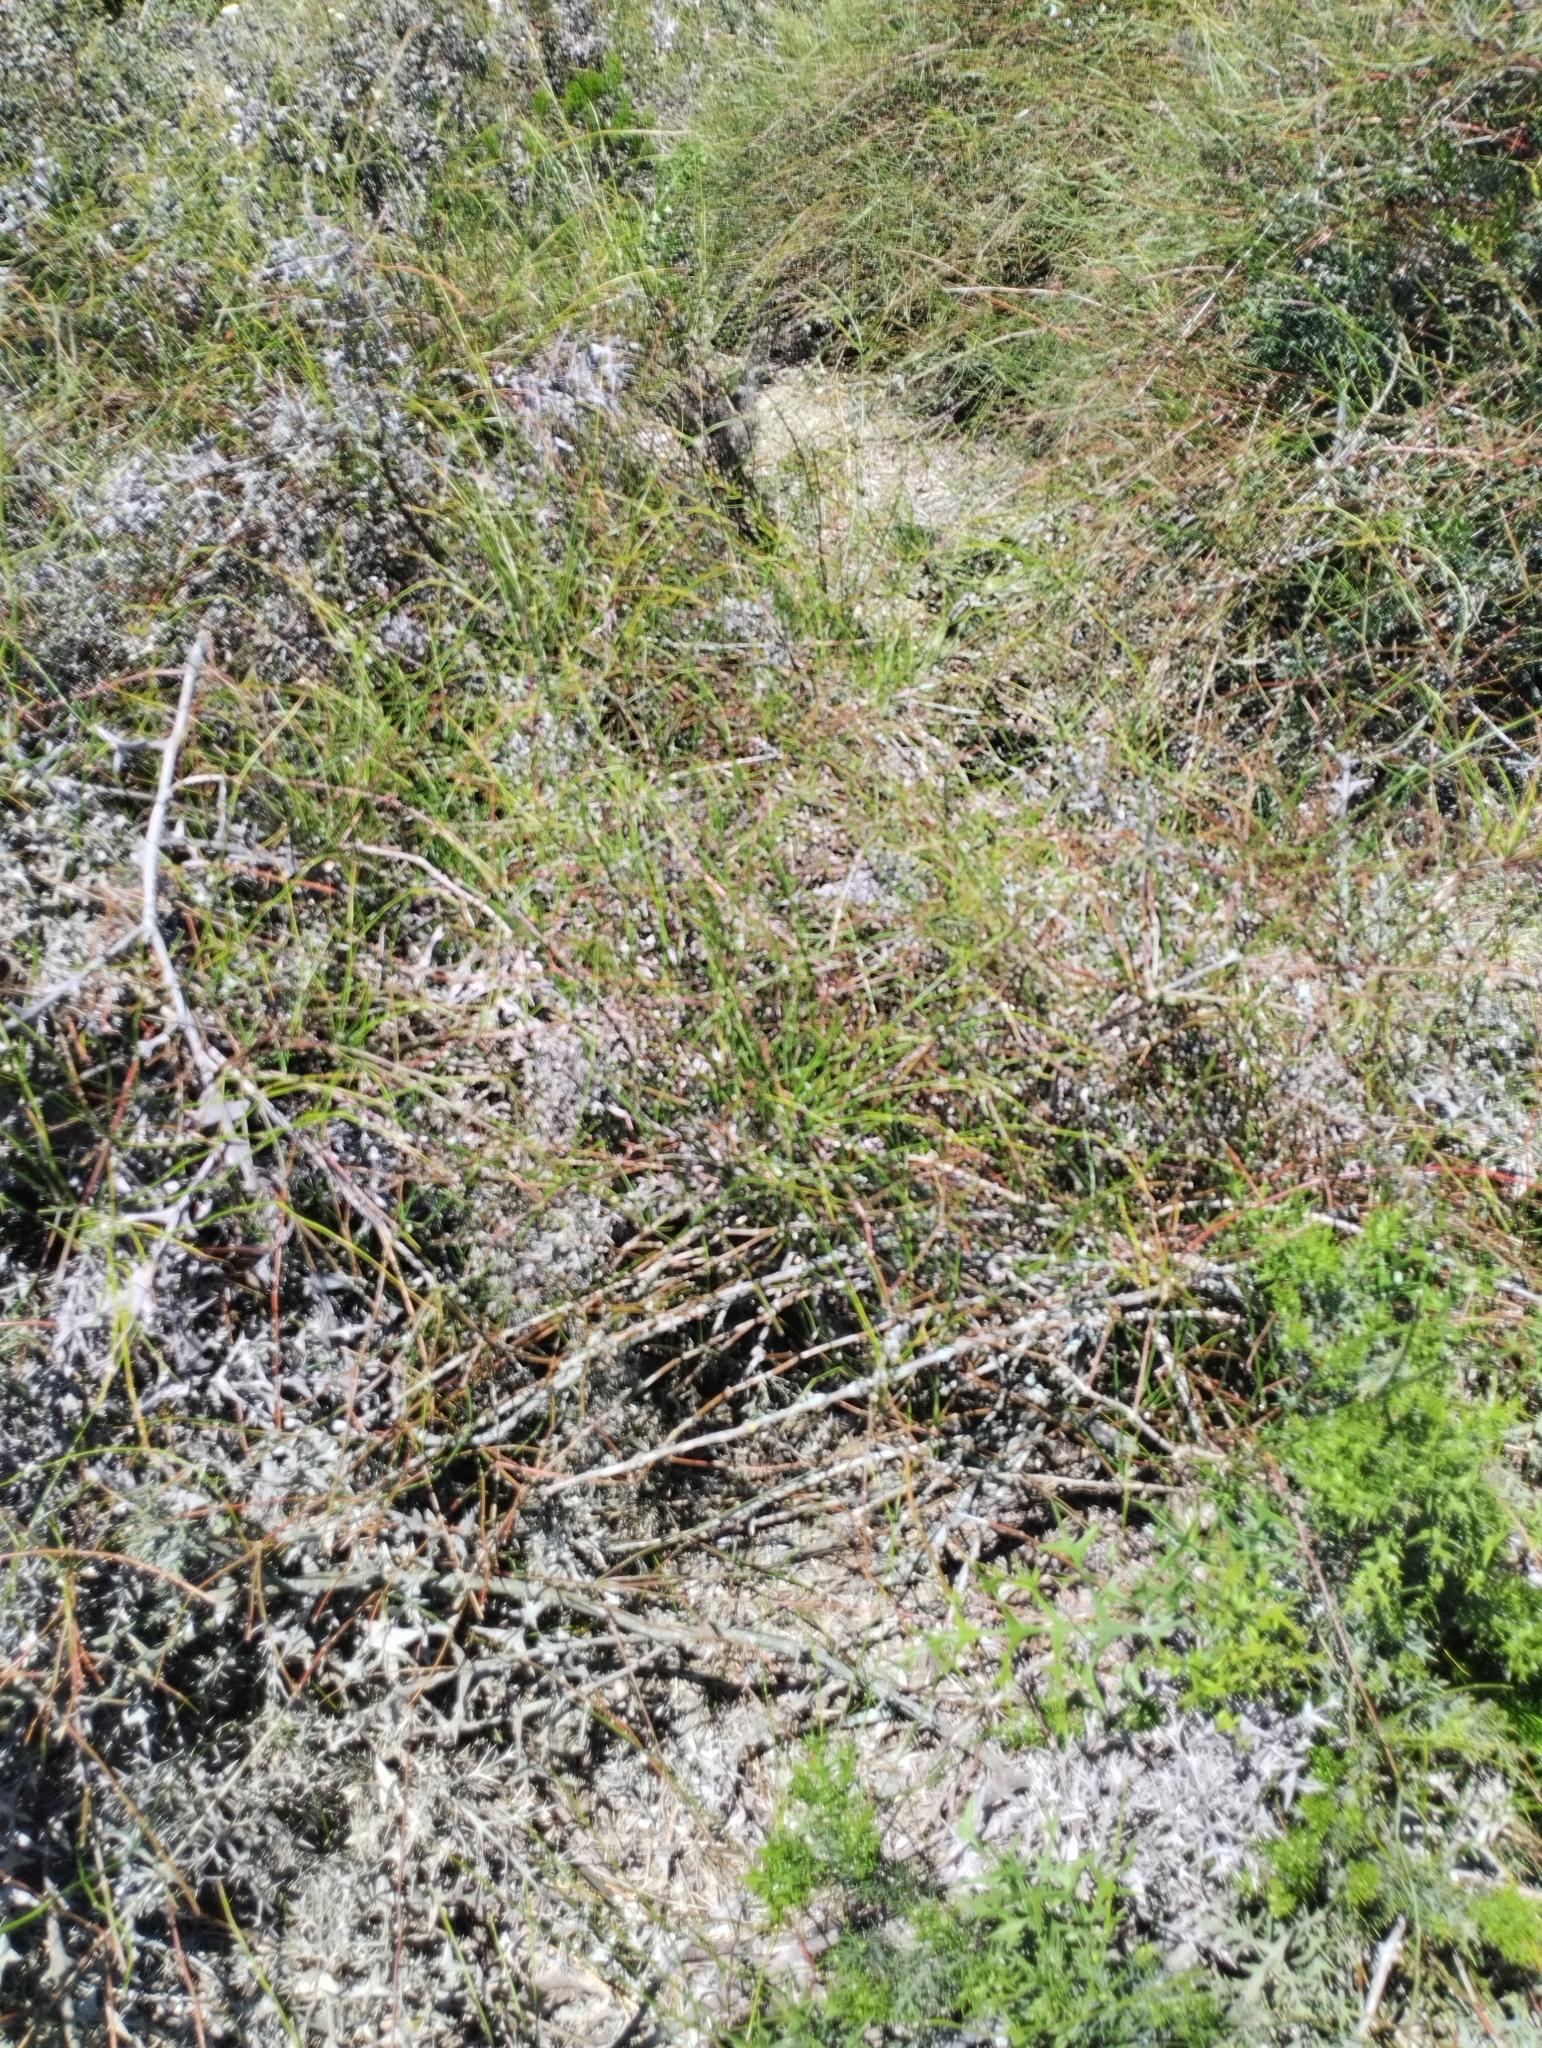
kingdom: Plantae
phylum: Tracheophyta
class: Gnetopsida
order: Ephedrales
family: Ephedraceae
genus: Ephedra
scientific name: Ephedra tweedieana
